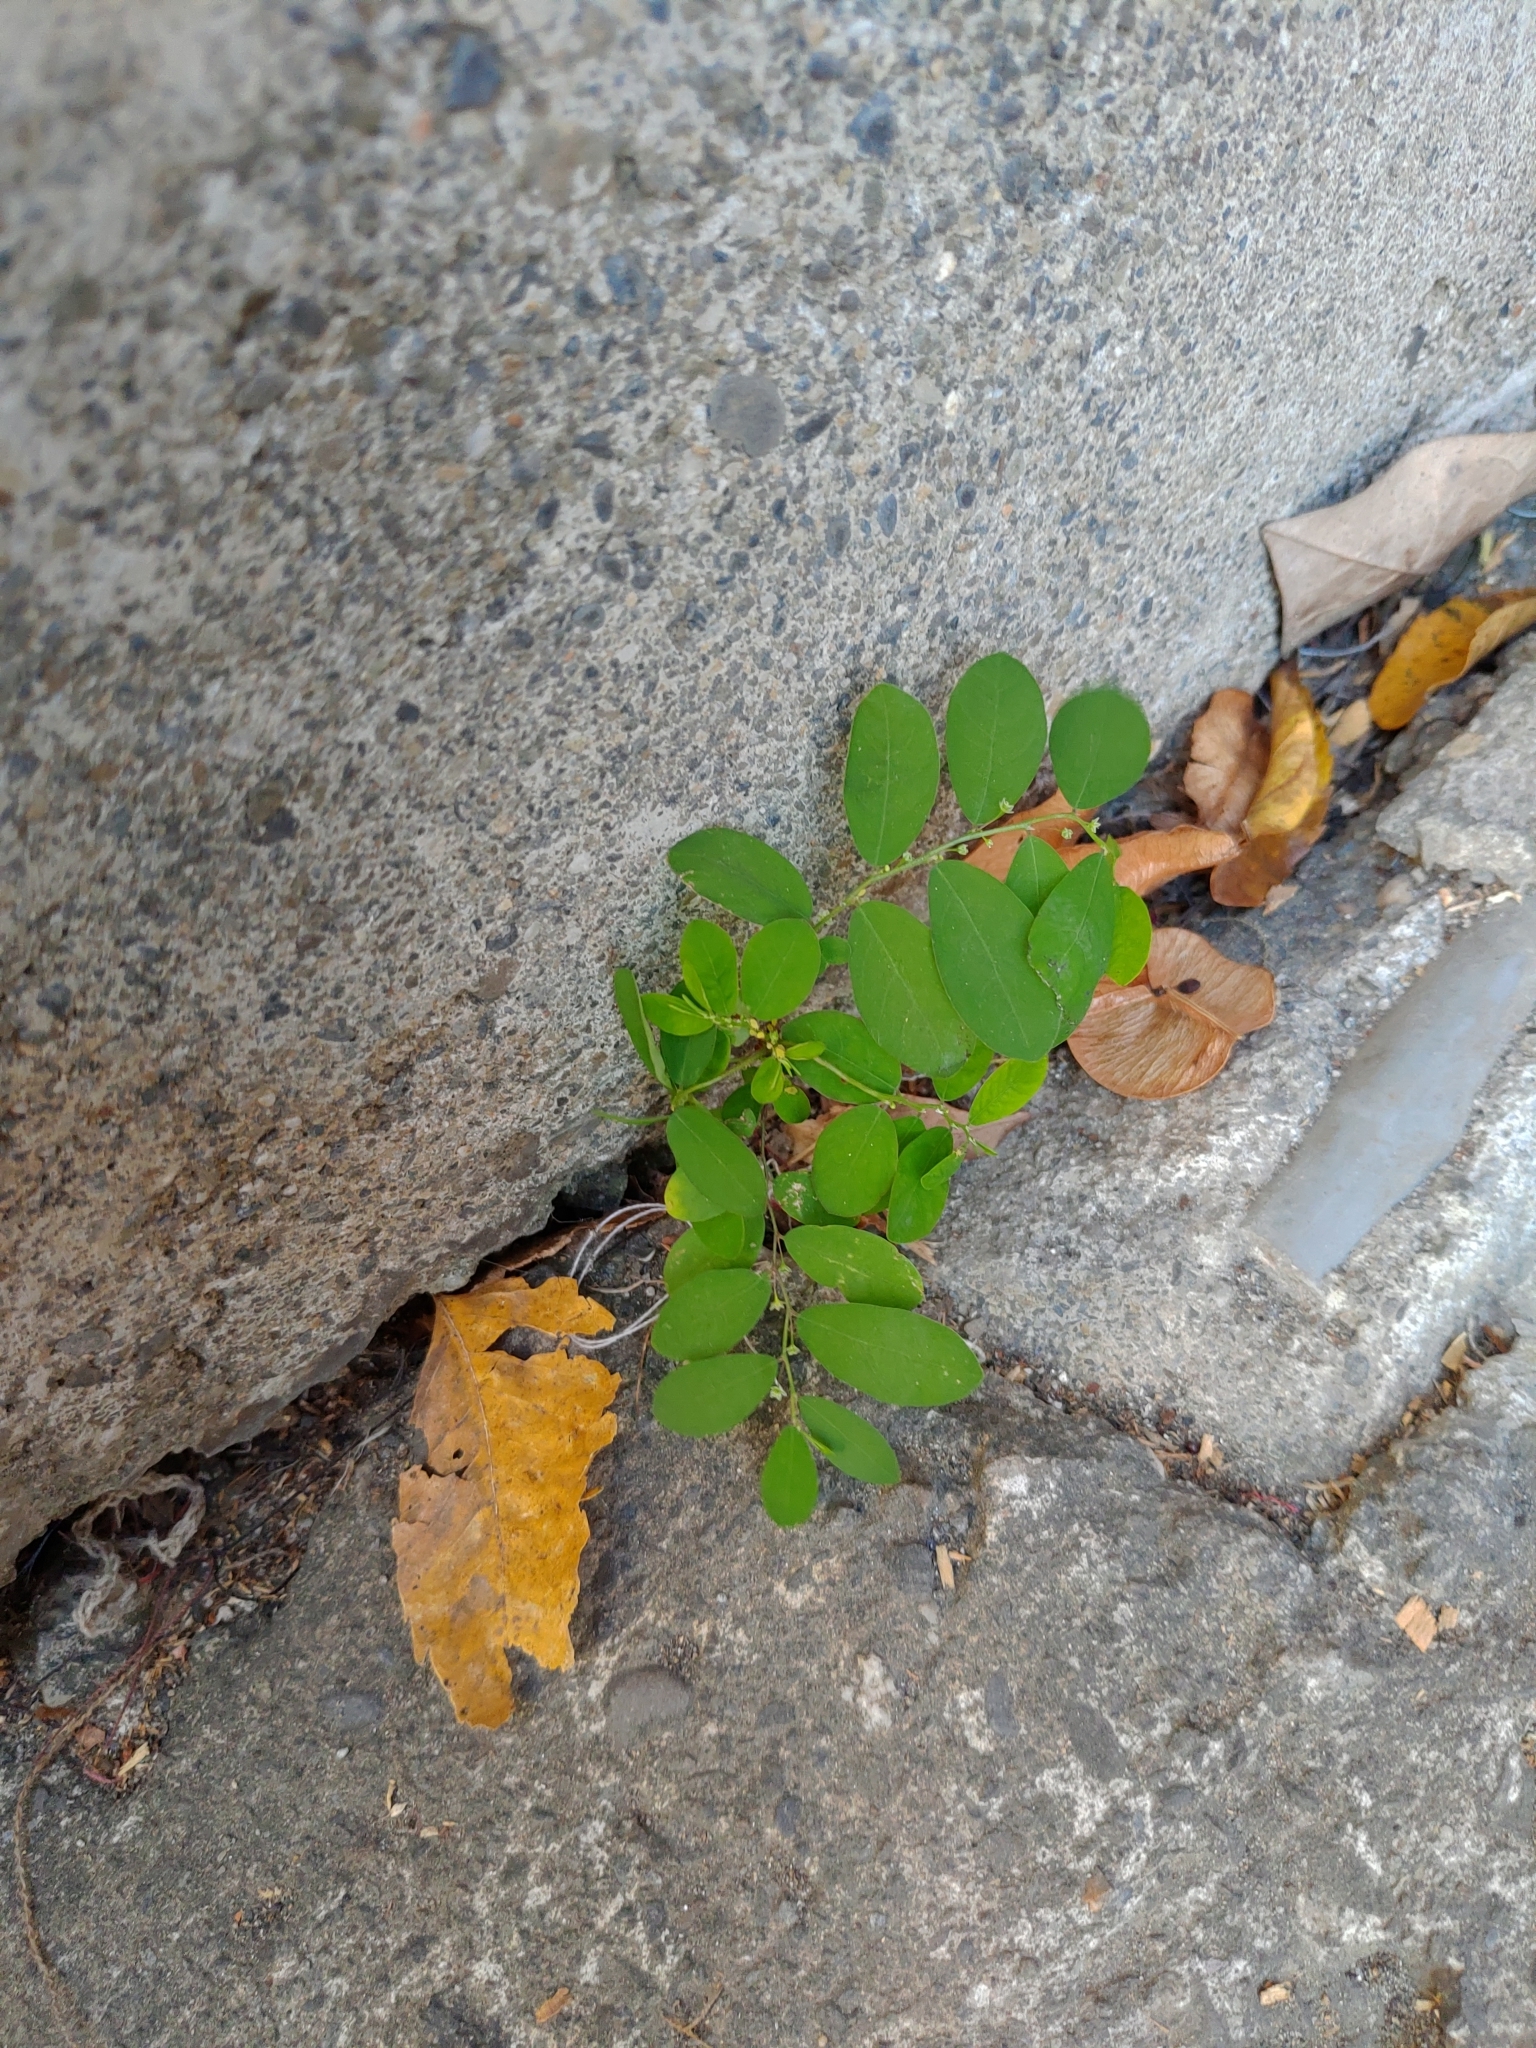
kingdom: Plantae
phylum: Tracheophyta
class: Magnoliopsida
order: Malpighiales
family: Phyllanthaceae
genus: Phyllanthus
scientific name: Phyllanthus tenellus
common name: Mascarene island leaf-flower
